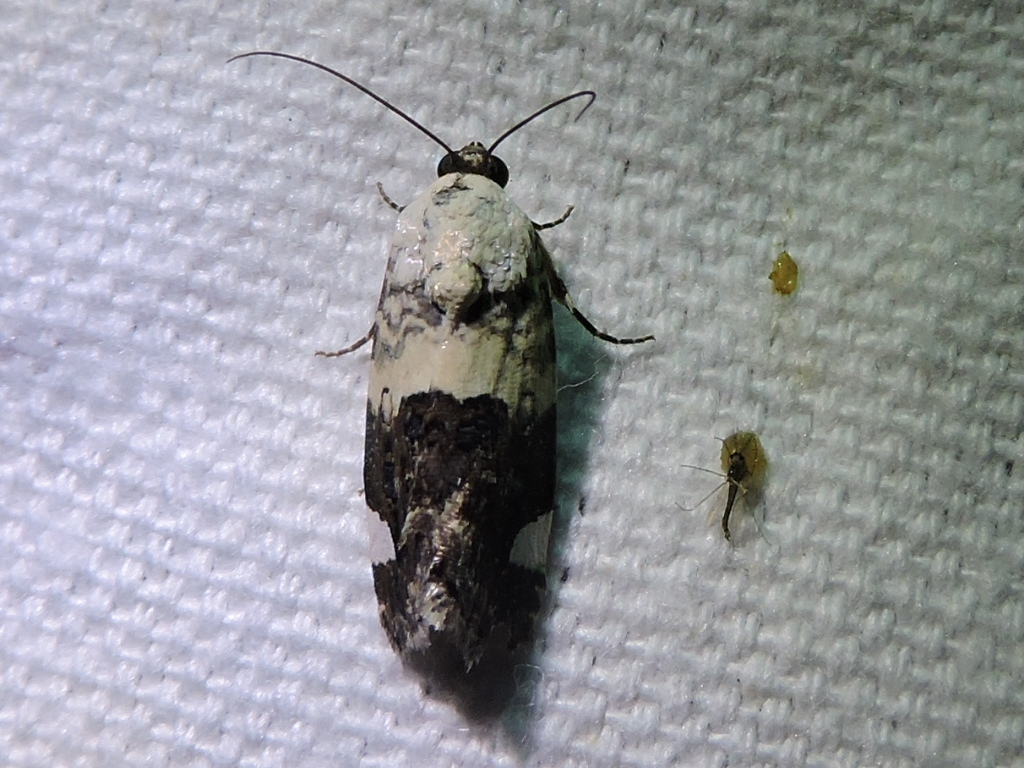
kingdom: Animalia
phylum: Arthropoda
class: Insecta
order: Lepidoptera
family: Noctuidae
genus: Acontia
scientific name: Acontia areli
